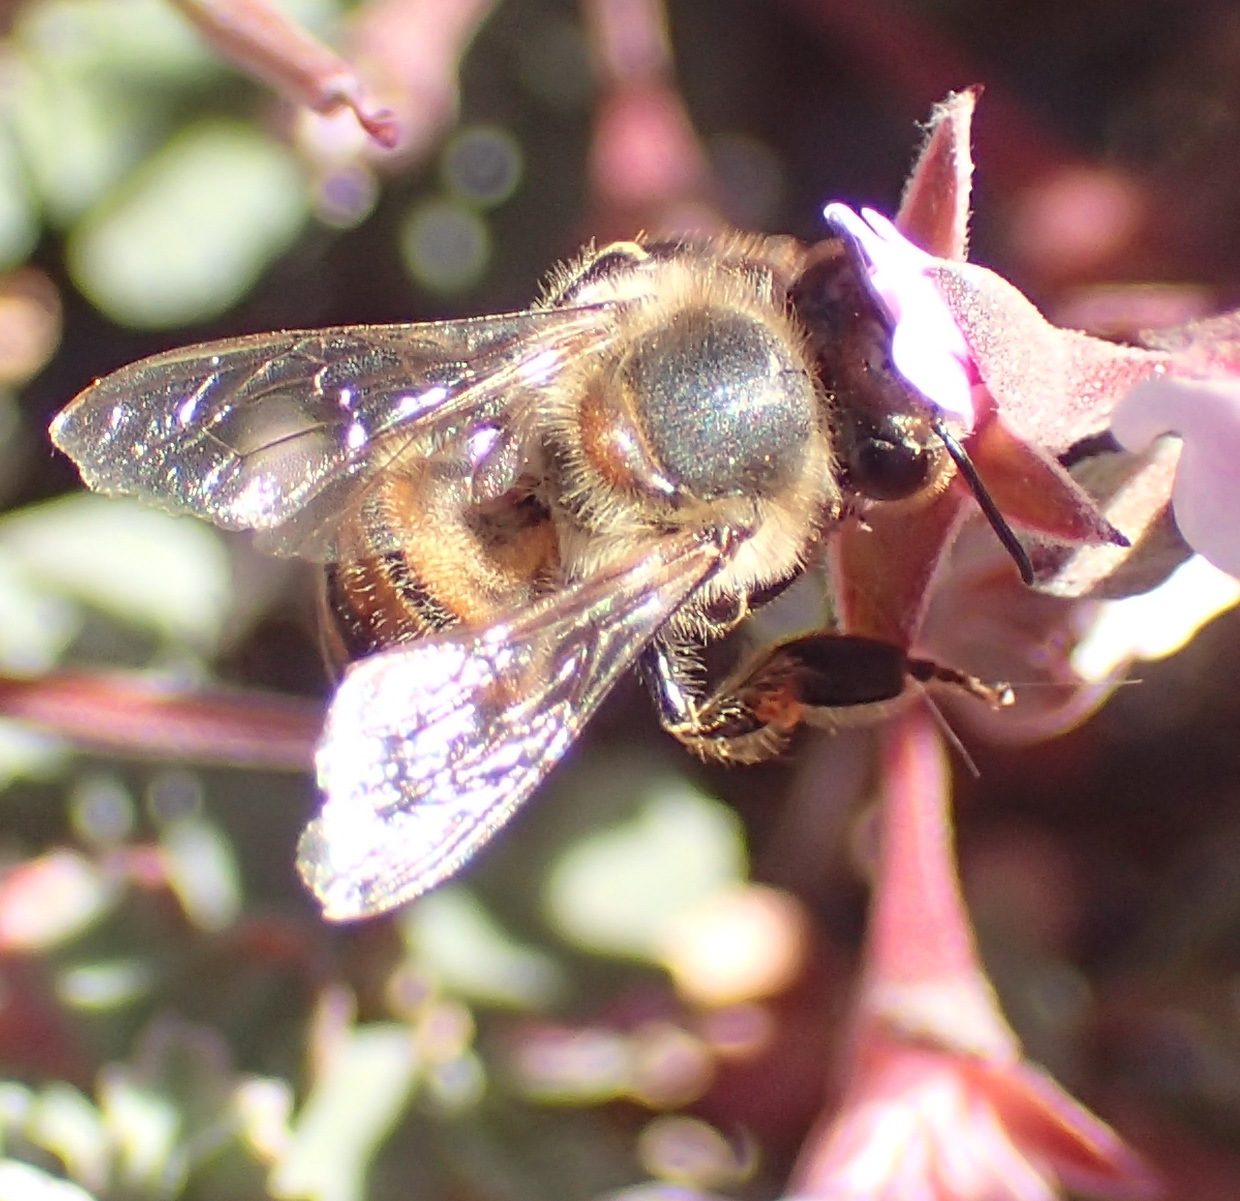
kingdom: Animalia
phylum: Arthropoda
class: Insecta
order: Hymenoptera
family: Apidae
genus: Apis
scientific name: Apis mellifera
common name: Honey bee
